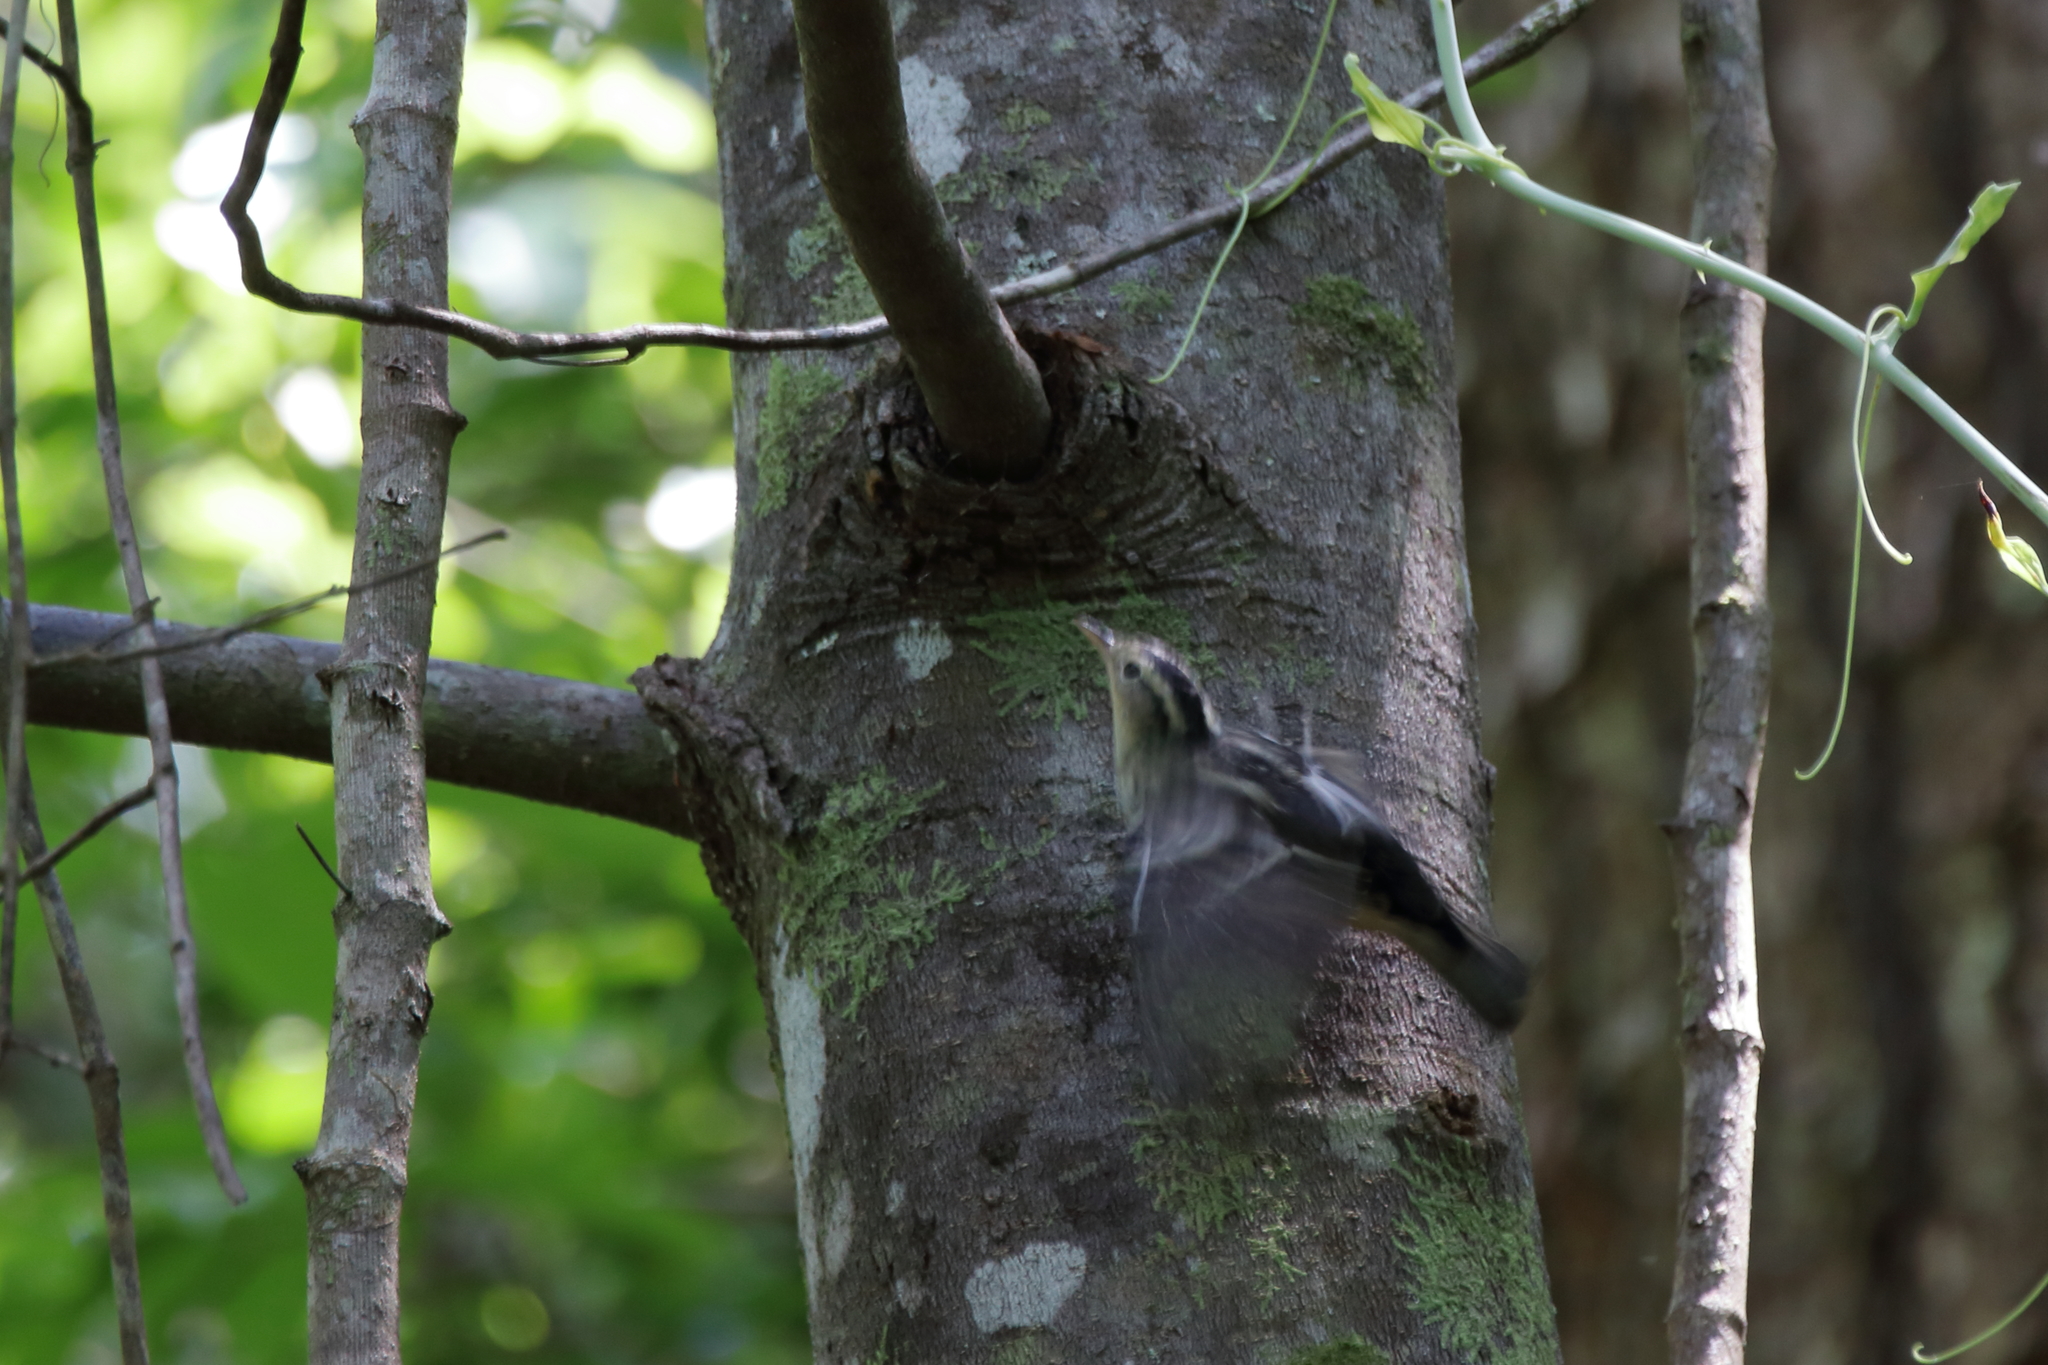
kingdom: Animalia
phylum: Chordata
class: Aves
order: Passeriformes
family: Parulidae
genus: Mniotilta
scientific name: Mniotilta varia
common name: Black-and-white warbler
